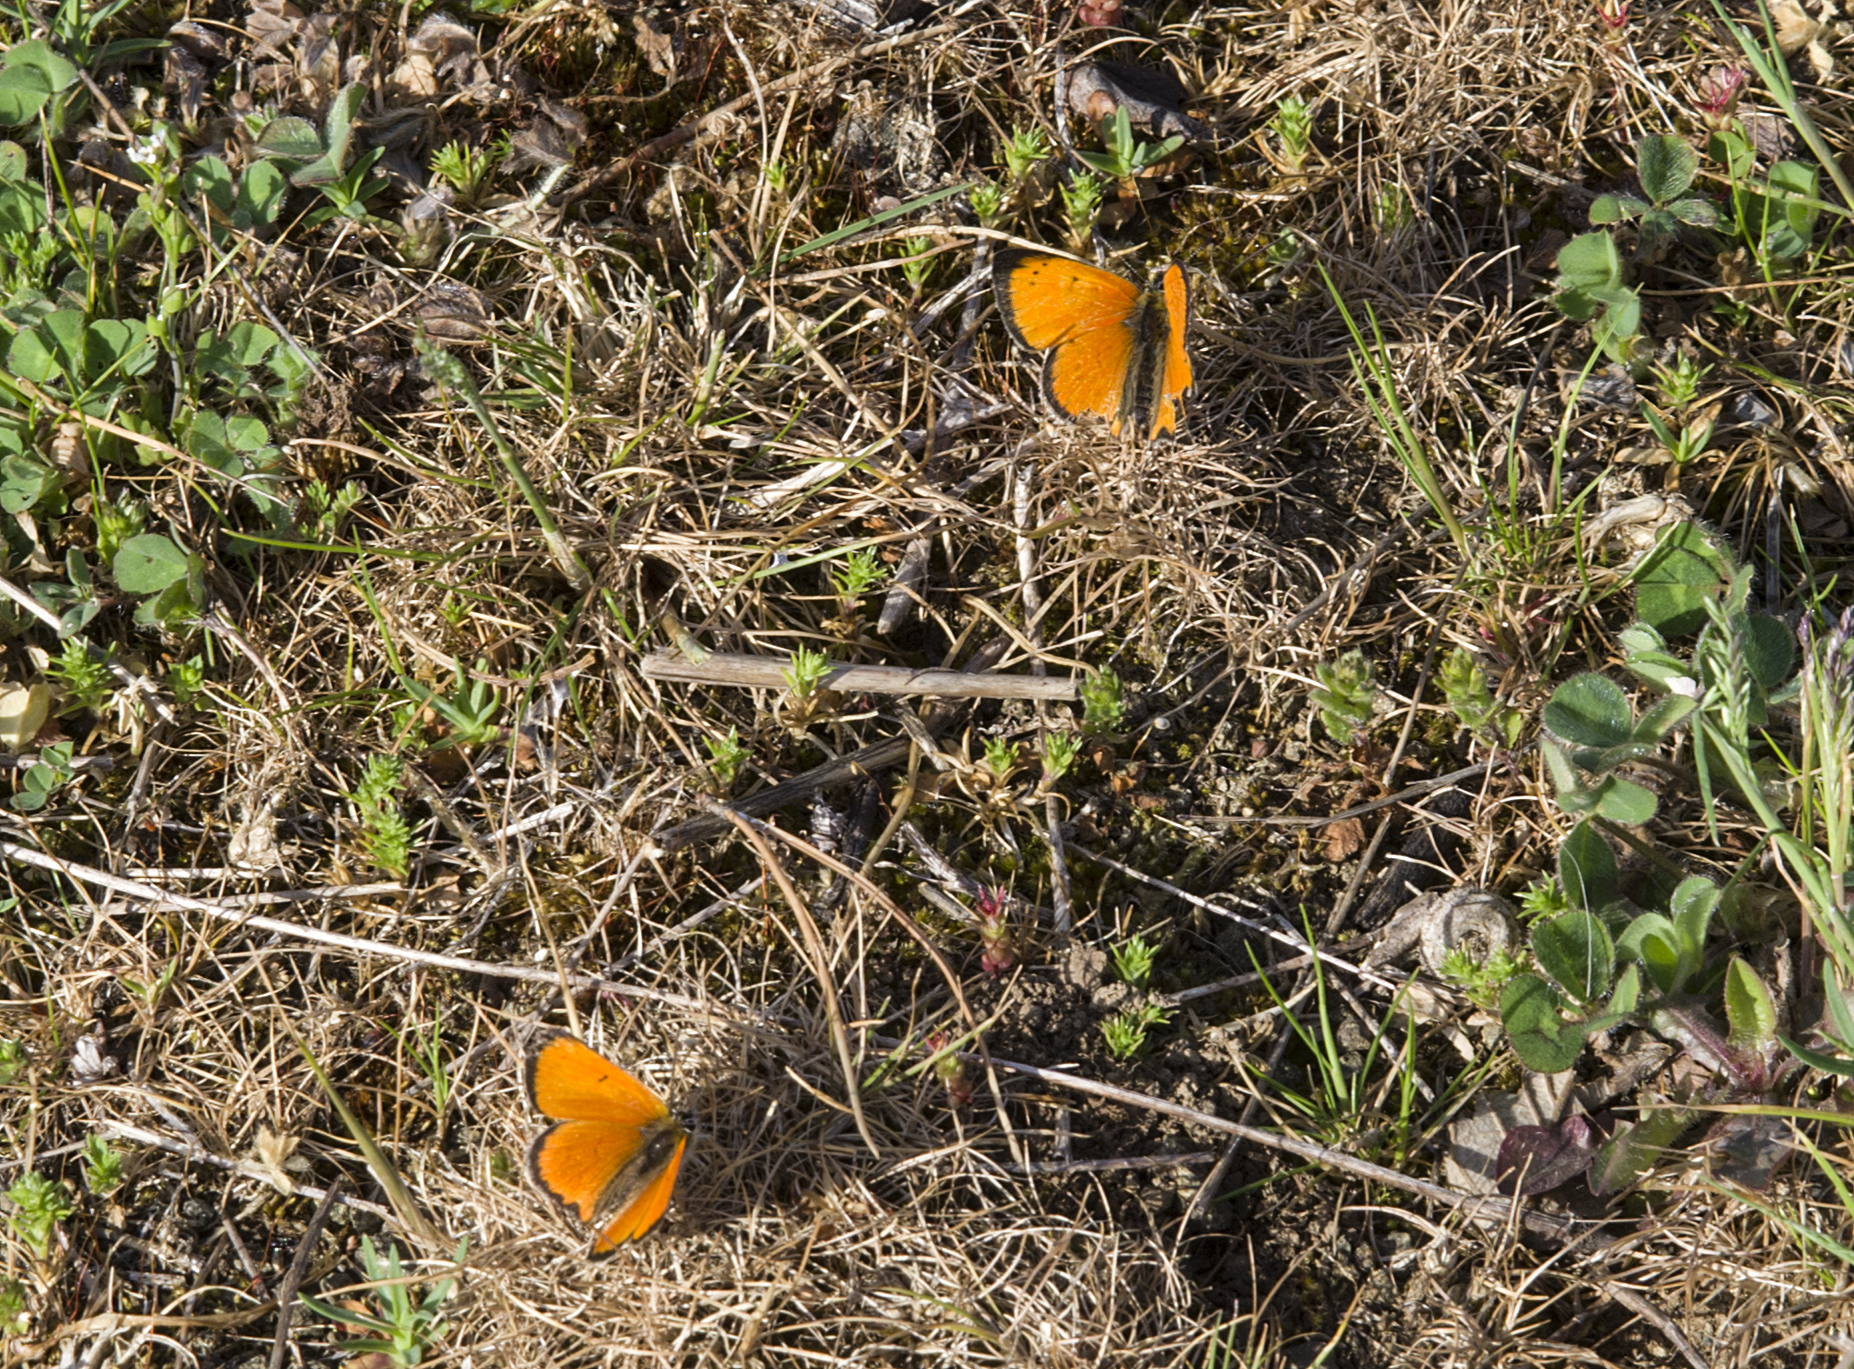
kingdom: Animalia
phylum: Arthropoda
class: Insecta
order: Lepidoptera
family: Lycaenidae
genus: Polyommatus
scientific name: Polyommatus ottomanus
